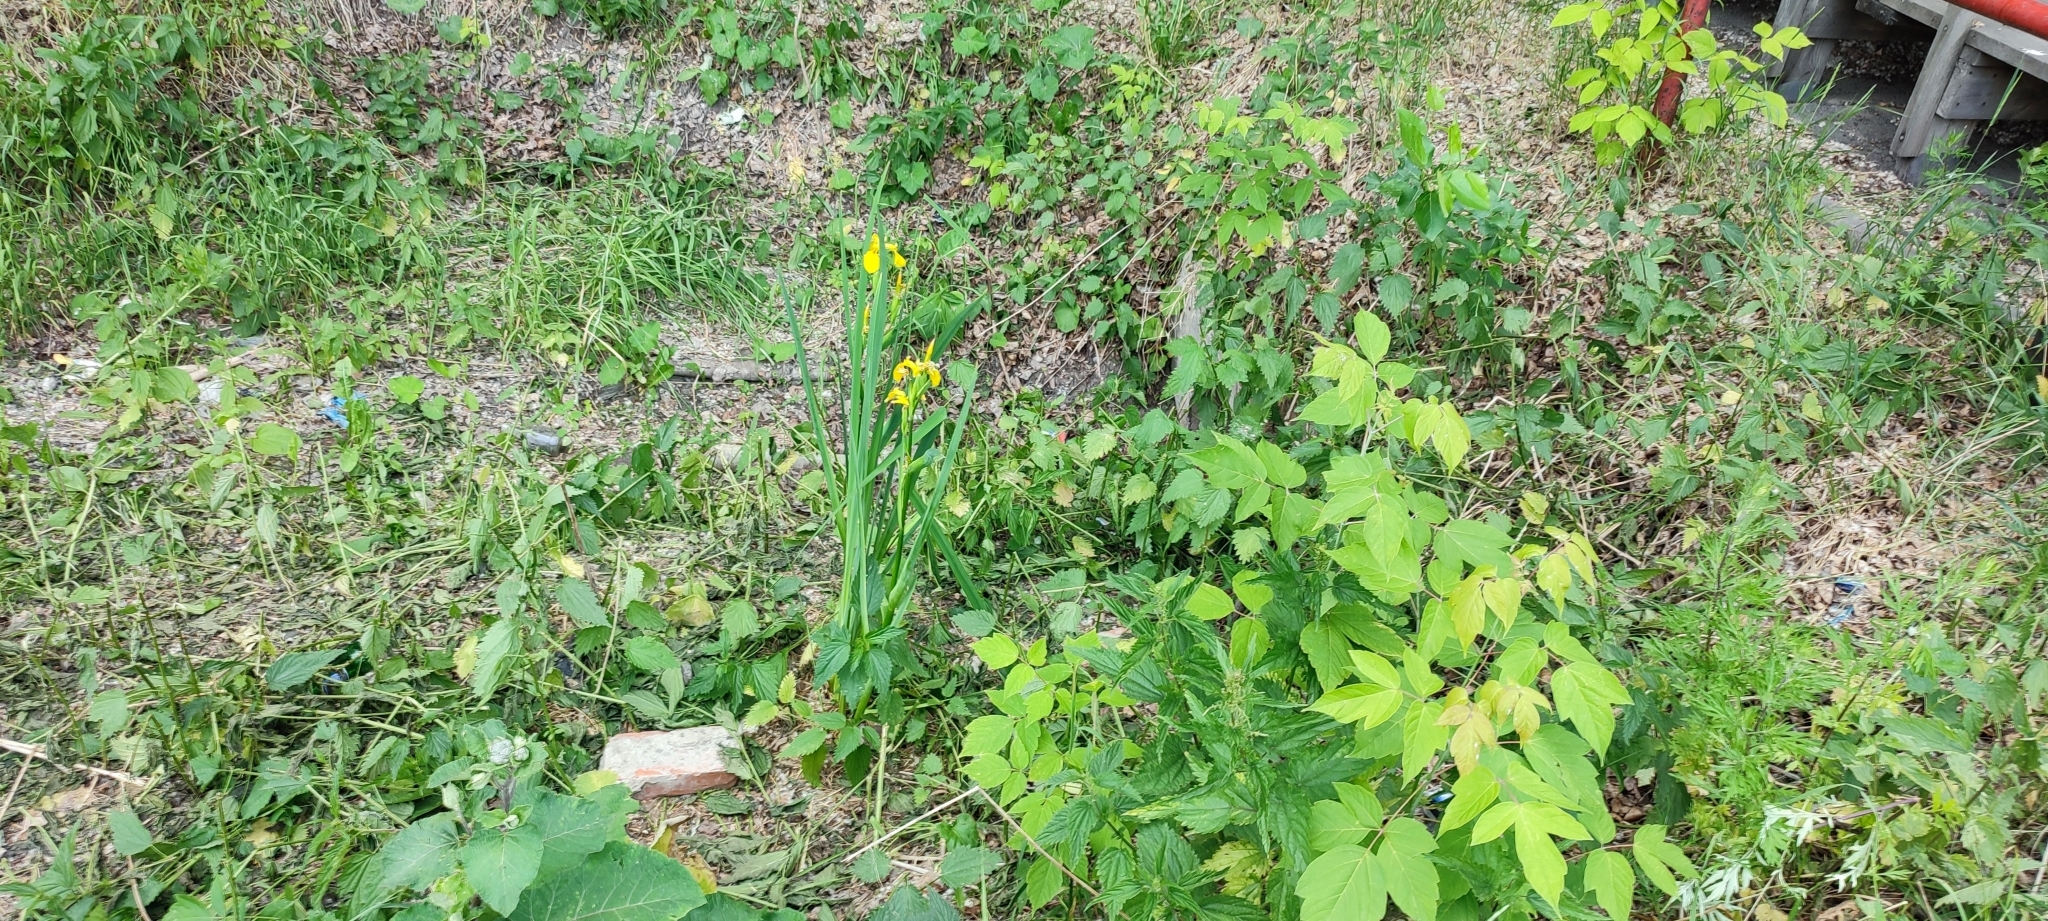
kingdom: Plantae
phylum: Tracheophyta
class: Liliopsida
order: Asparagales
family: Iridaceae
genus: Iris
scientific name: Iris pseudacorus
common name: Yellow flag
